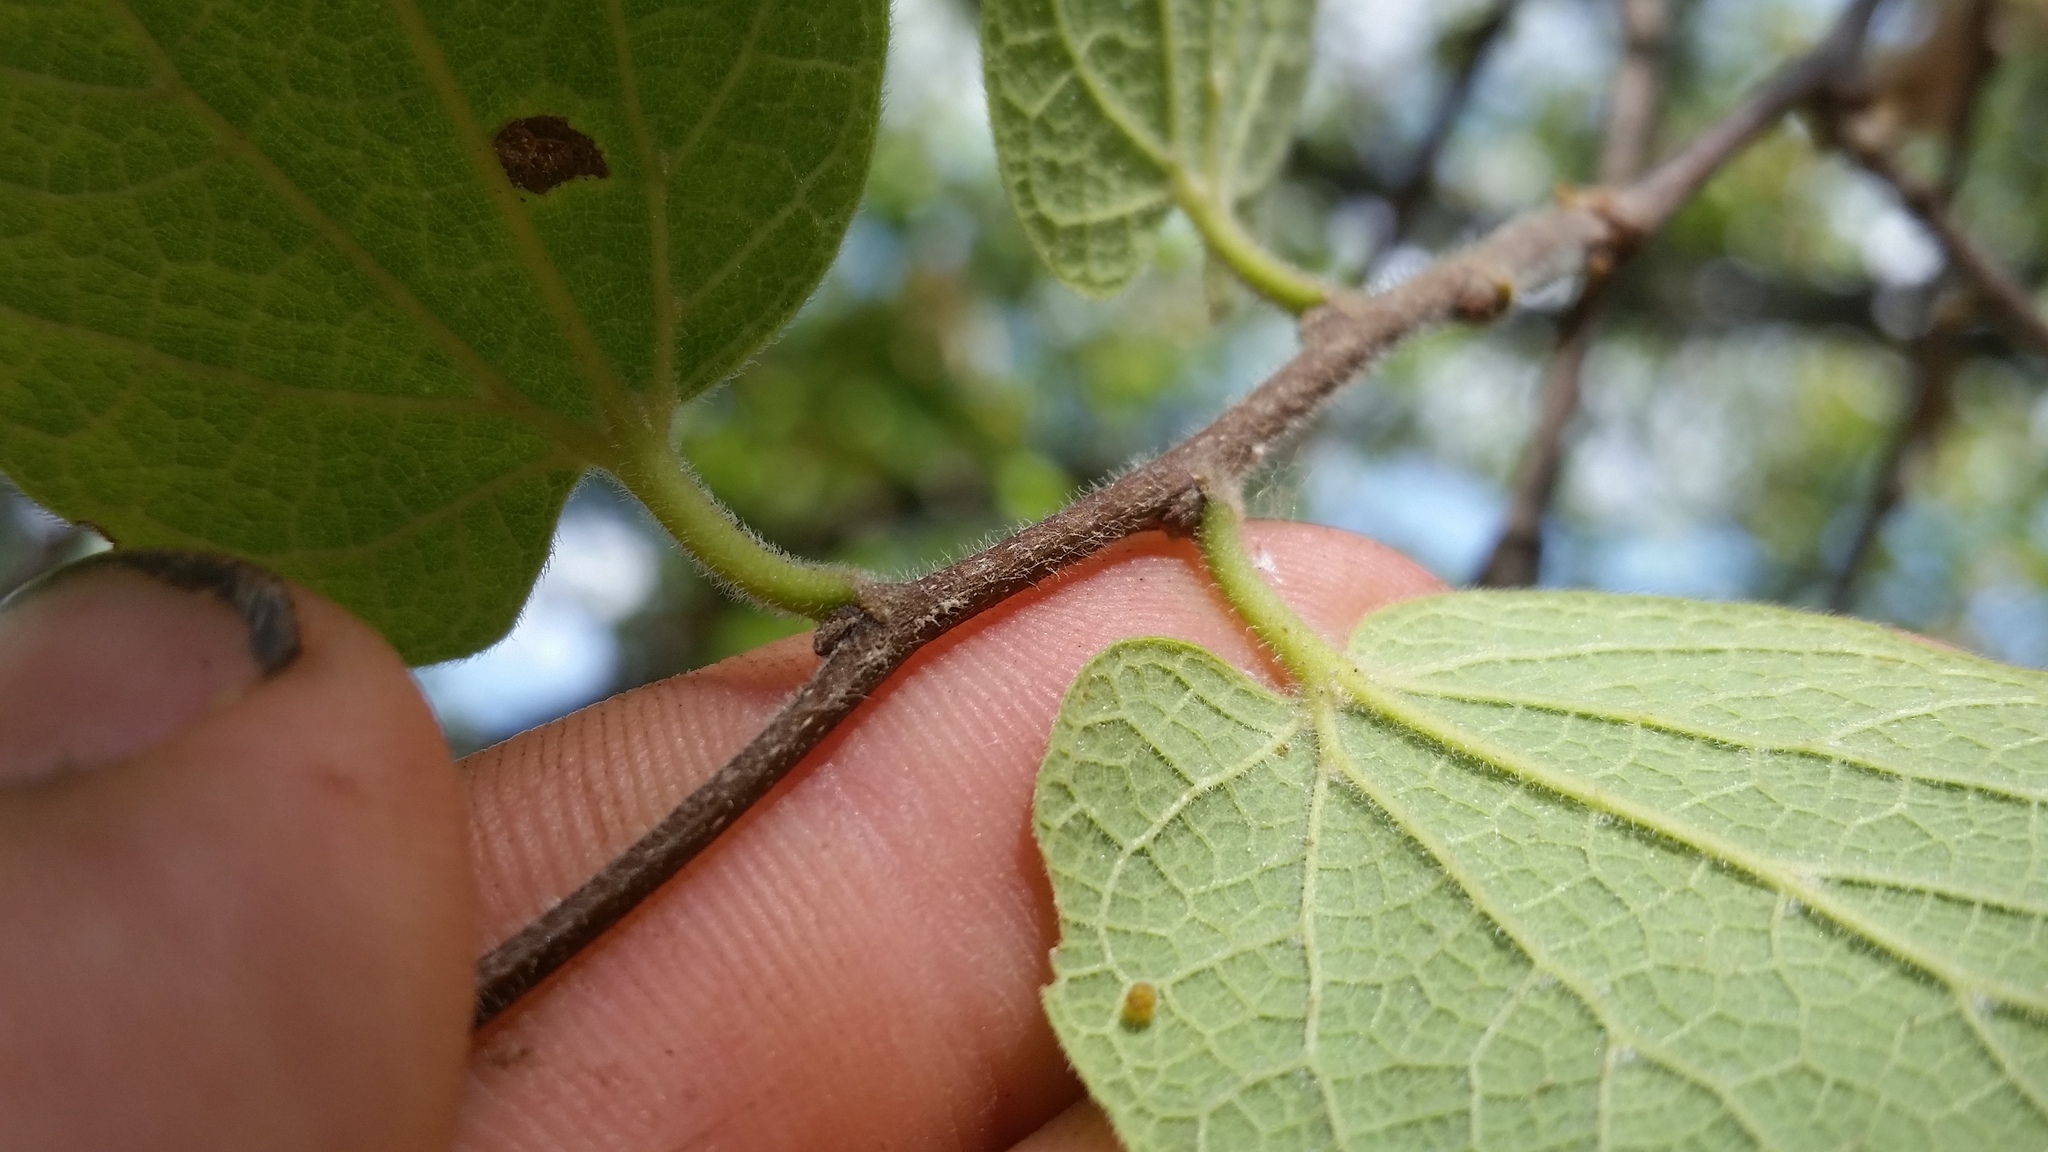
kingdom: Plantae
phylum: Tracheophyta
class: Magnoliopsida
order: Rosales
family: Cannabaceae
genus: Celtis
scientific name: Celtis reticulata
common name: Netleaf hackberry
